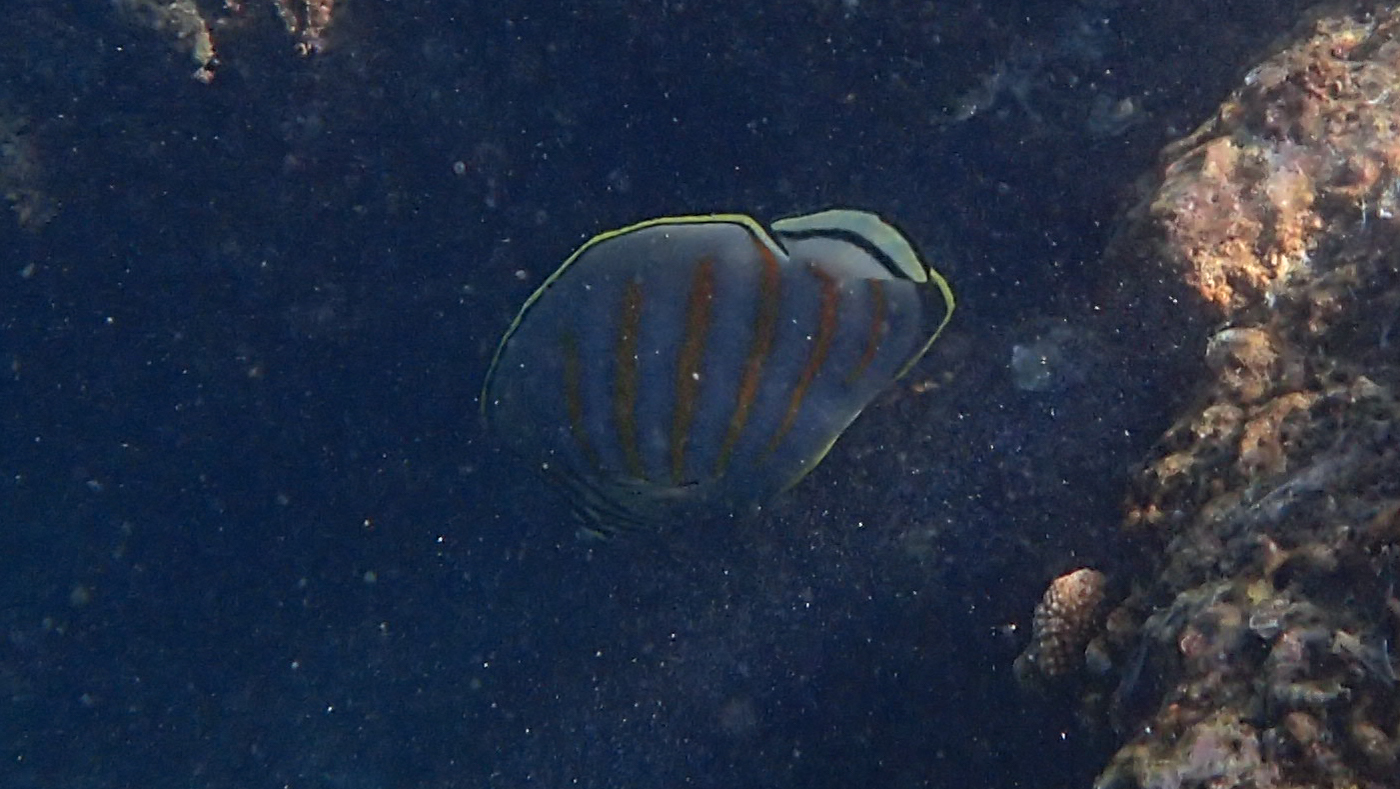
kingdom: Animalia
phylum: Chordata
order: Perciformes
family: Chaetodontidae
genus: Chaetodon
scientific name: Chaetodon ornatissimus
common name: Ornate butterflyfish
